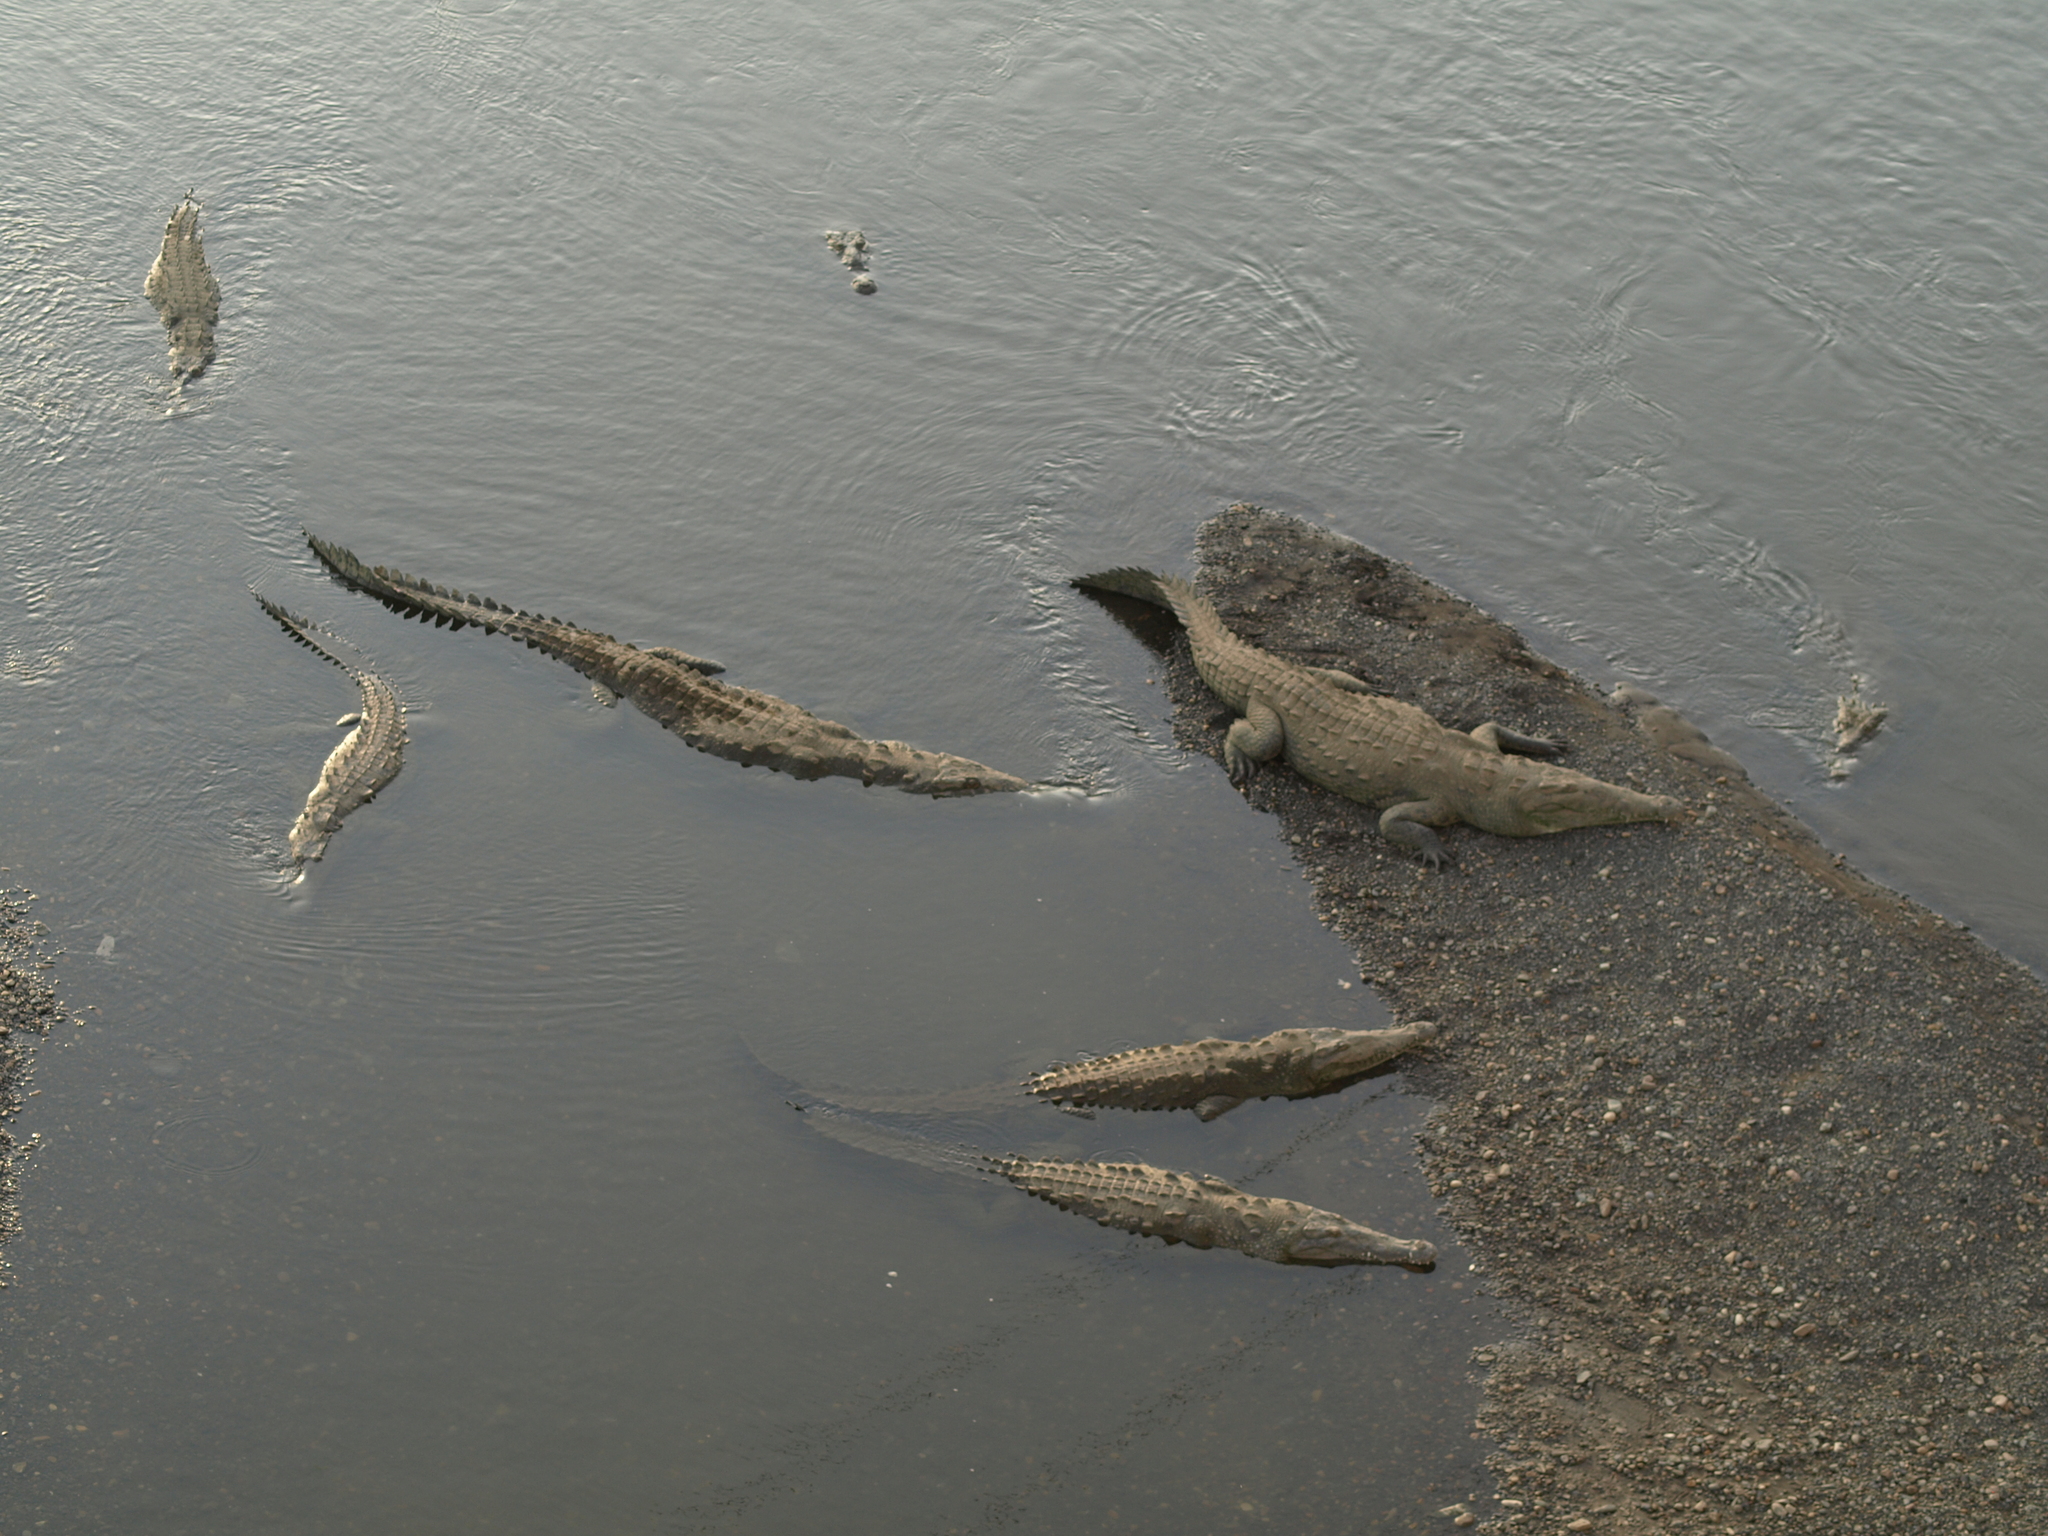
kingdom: Animalia
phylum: Chordata
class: Crocodylia
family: Crocodylidae
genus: Crocodylus
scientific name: Crocodylus acutus
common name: American crocodile
